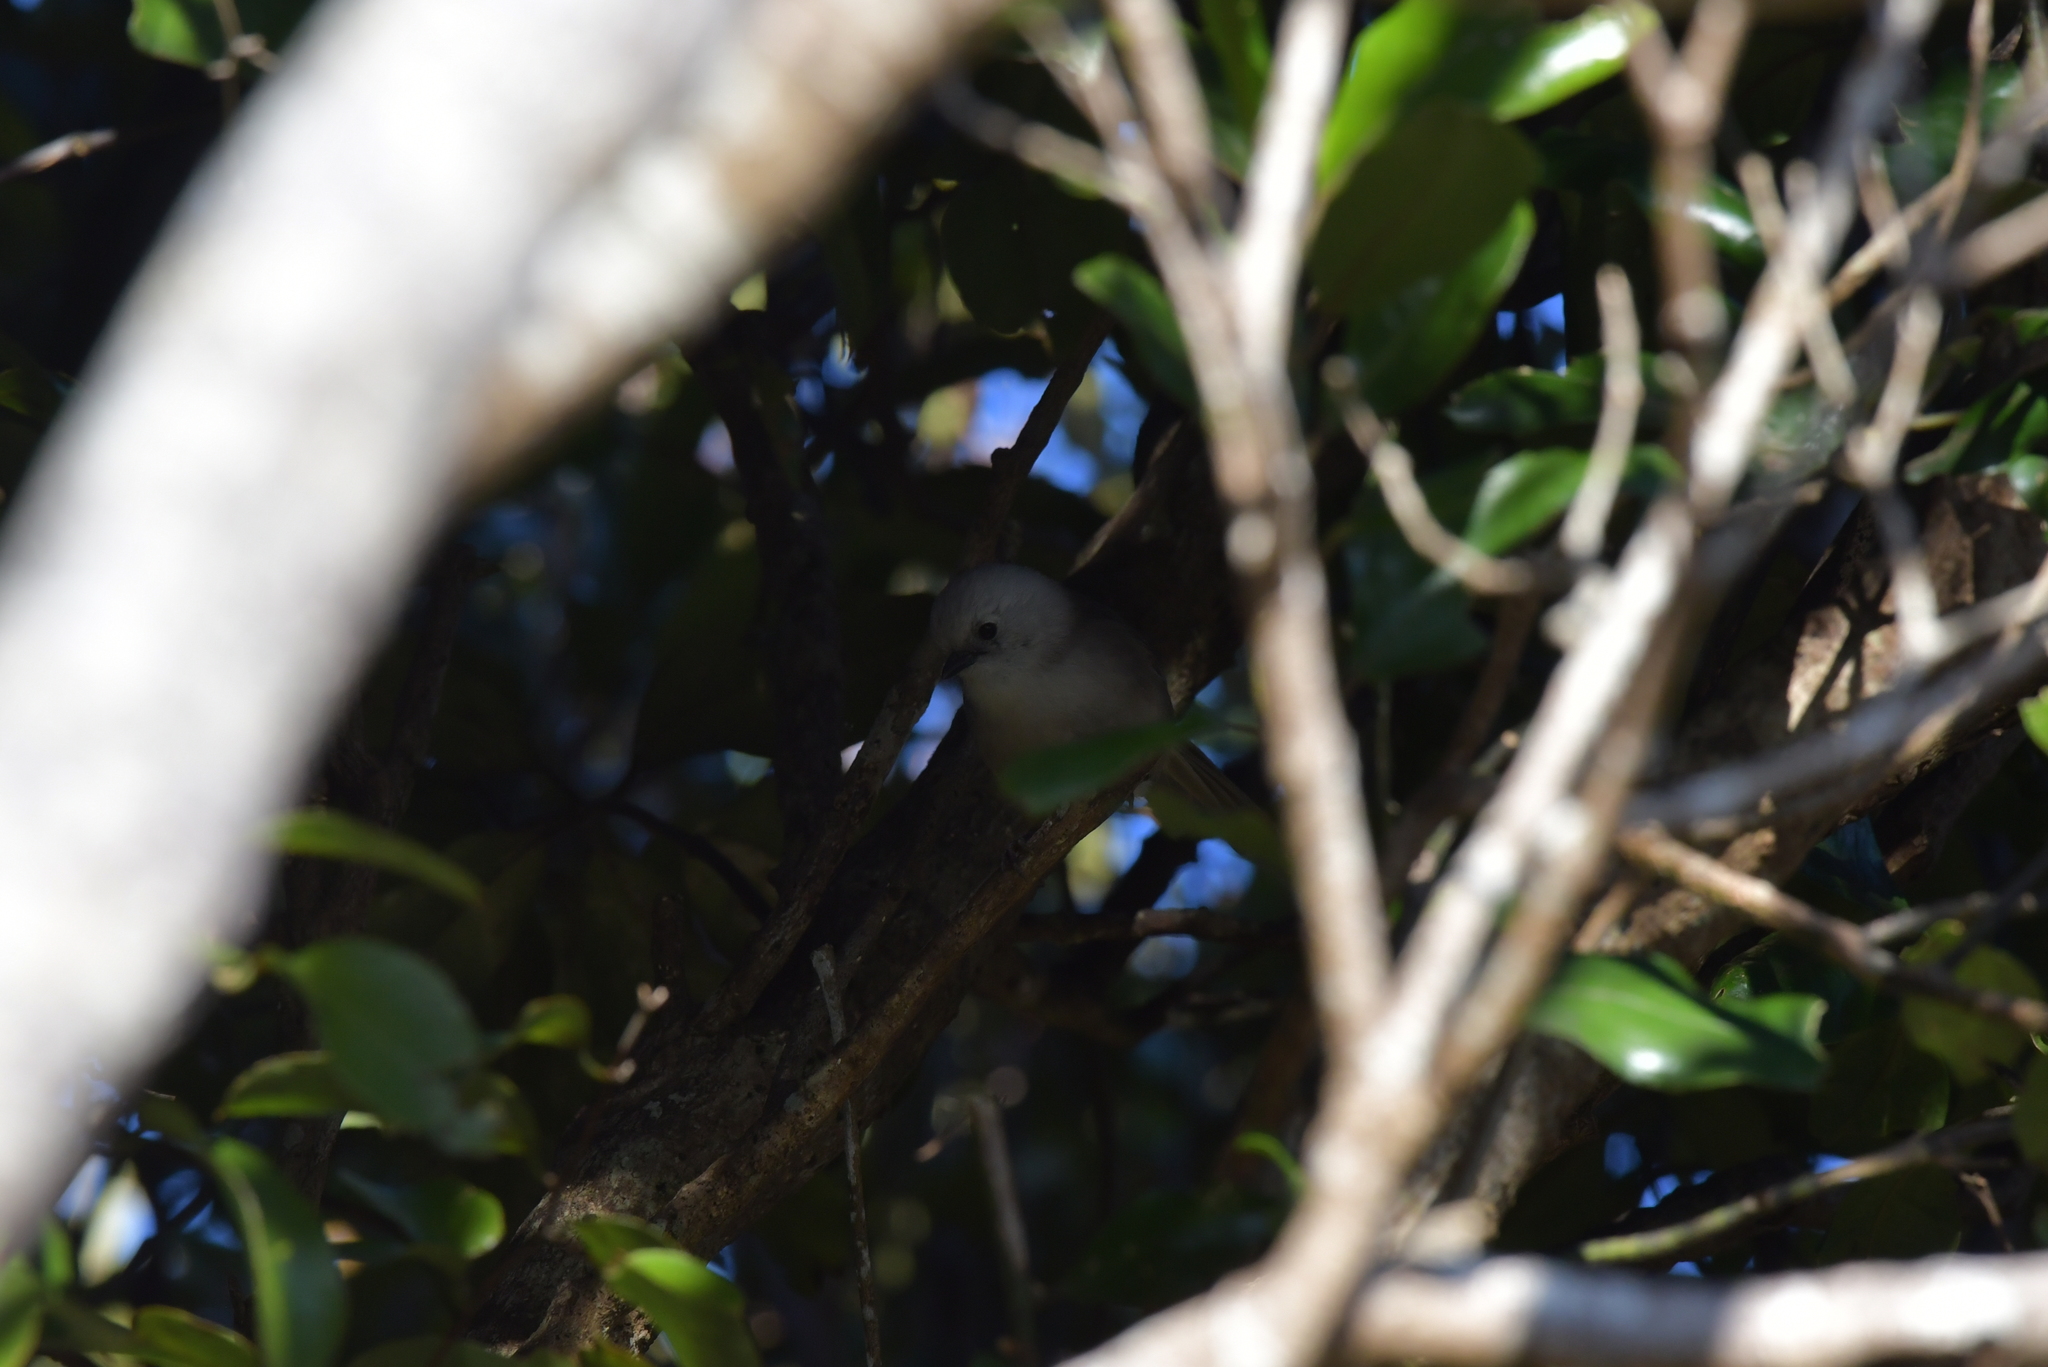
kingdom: Animalia
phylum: Chordata
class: Aves
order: Passeriformes
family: Acanthizidae
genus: Mohoua
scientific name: Mohoua albicilla
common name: Whitehead
